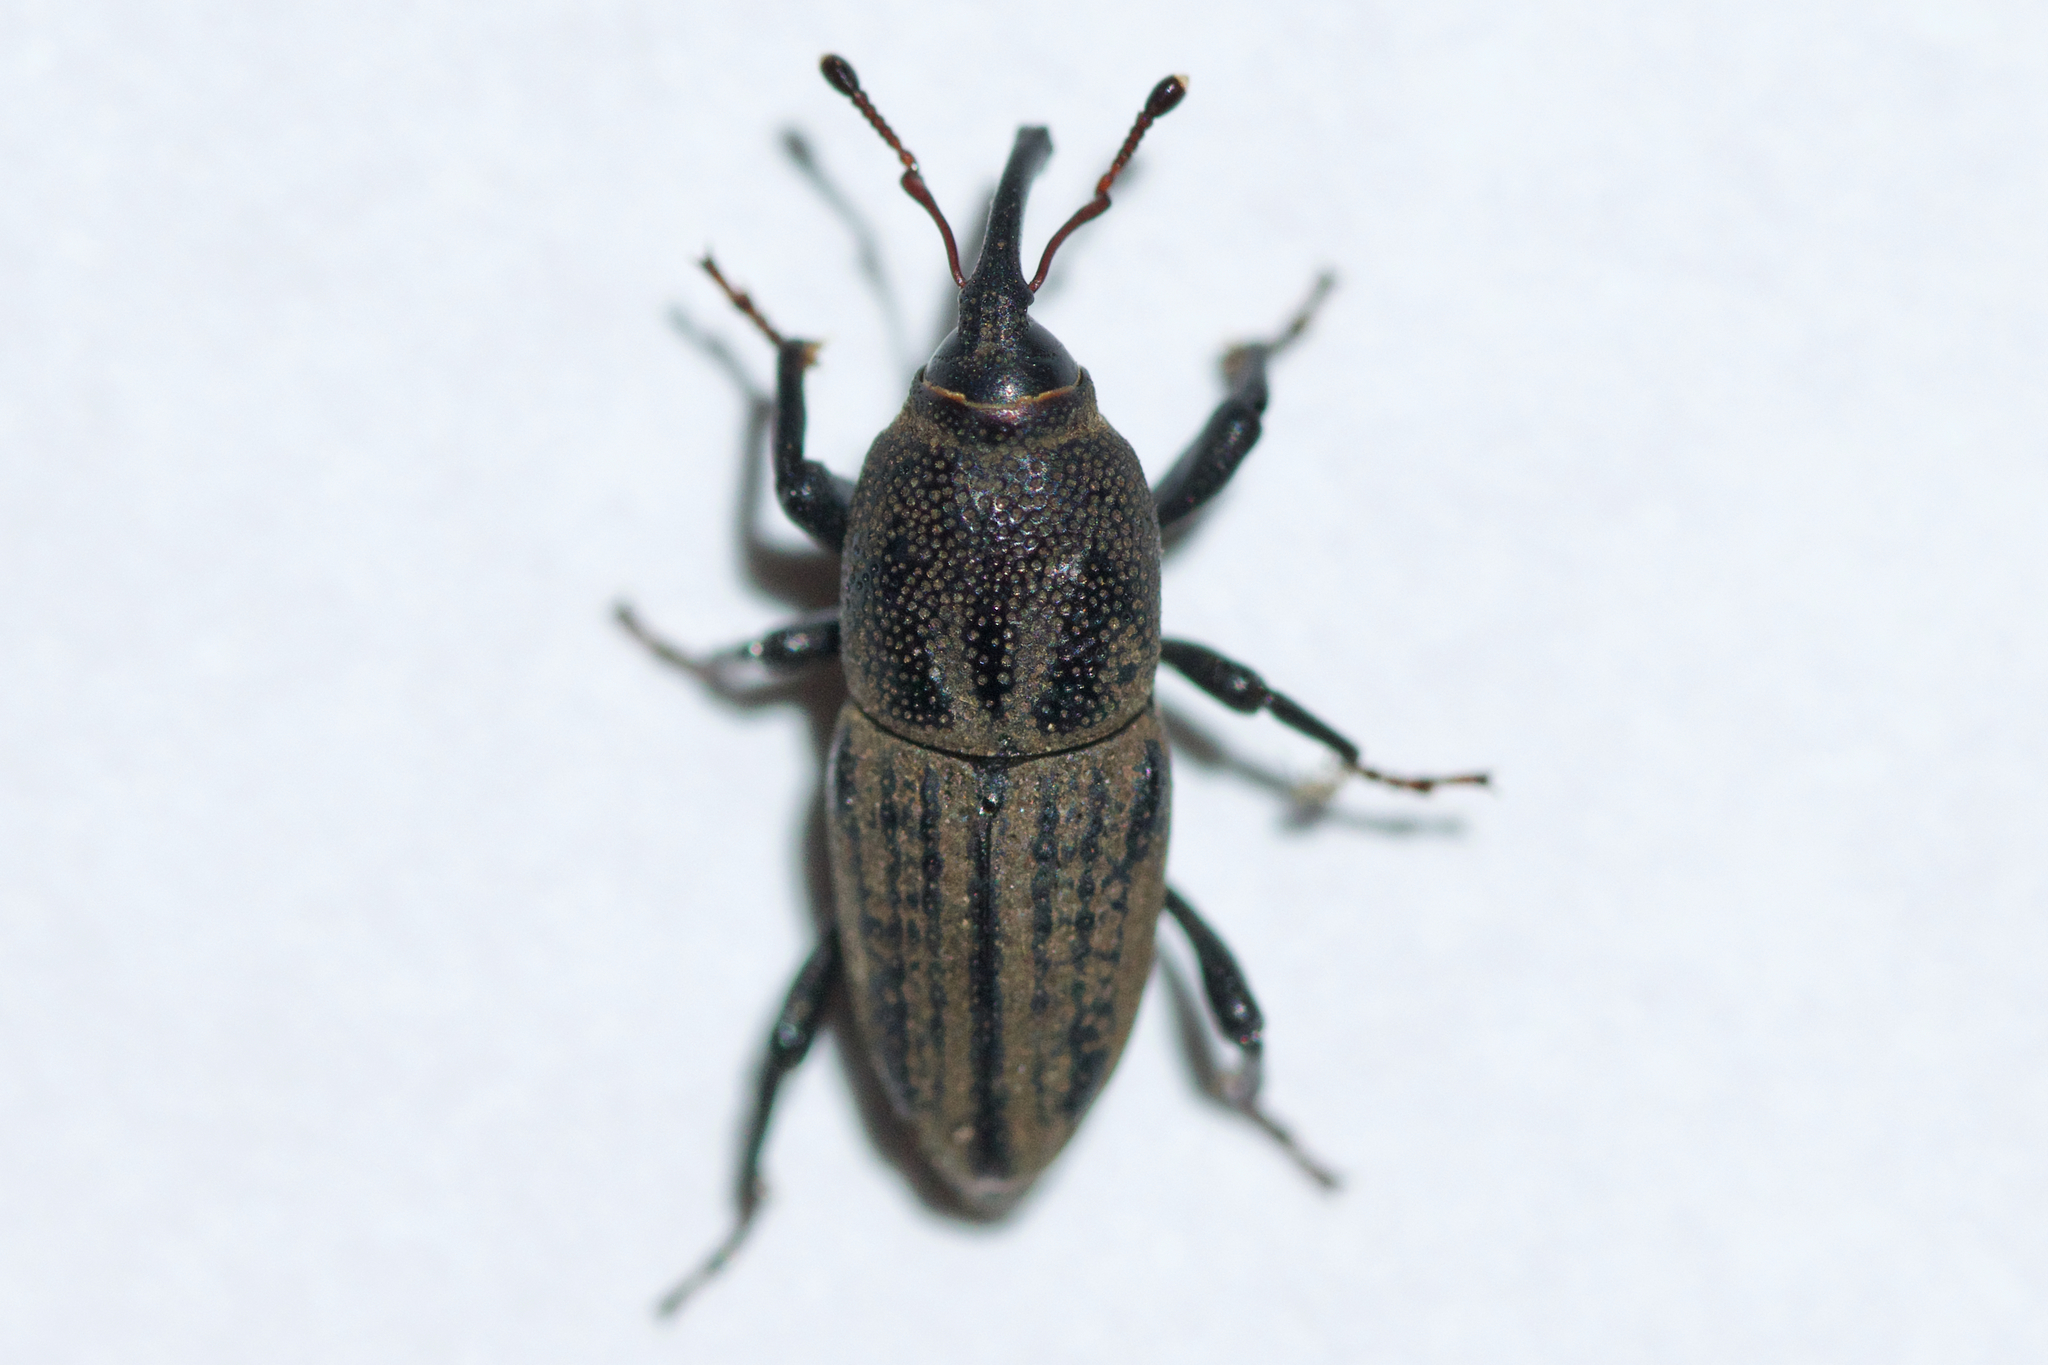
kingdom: Animalia
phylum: Arthropoda
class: Insecta
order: Coleoptera
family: Dryophthoridae
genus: Sphenophorus
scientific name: Sphenophorus interstitialis
